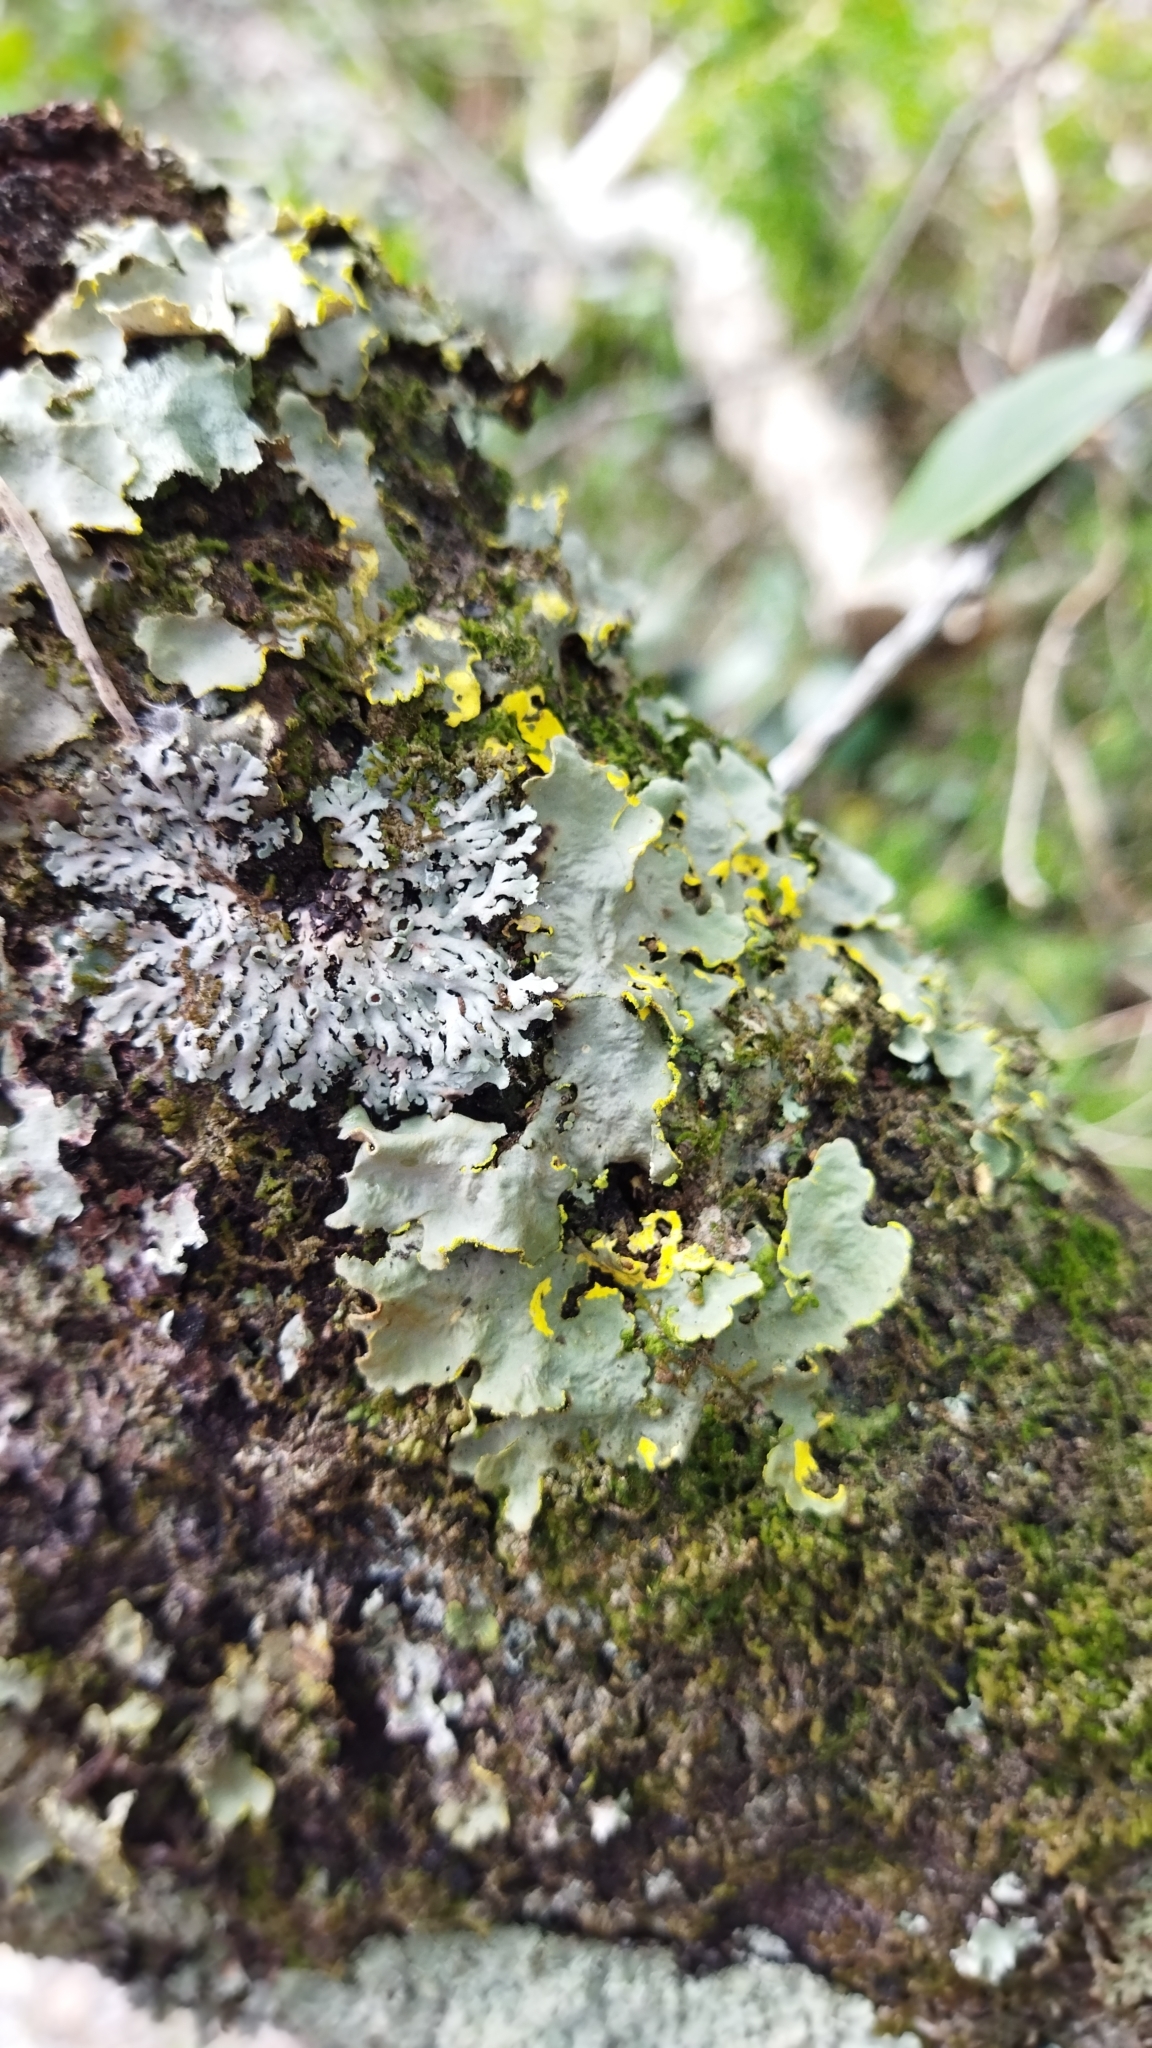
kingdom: Fungi
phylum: Ascomycota
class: Lecanoromycetes
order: Peltigerales
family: Lobariaceae
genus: Pseudocyphellaria
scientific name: Pseudocyphellaria aurata
